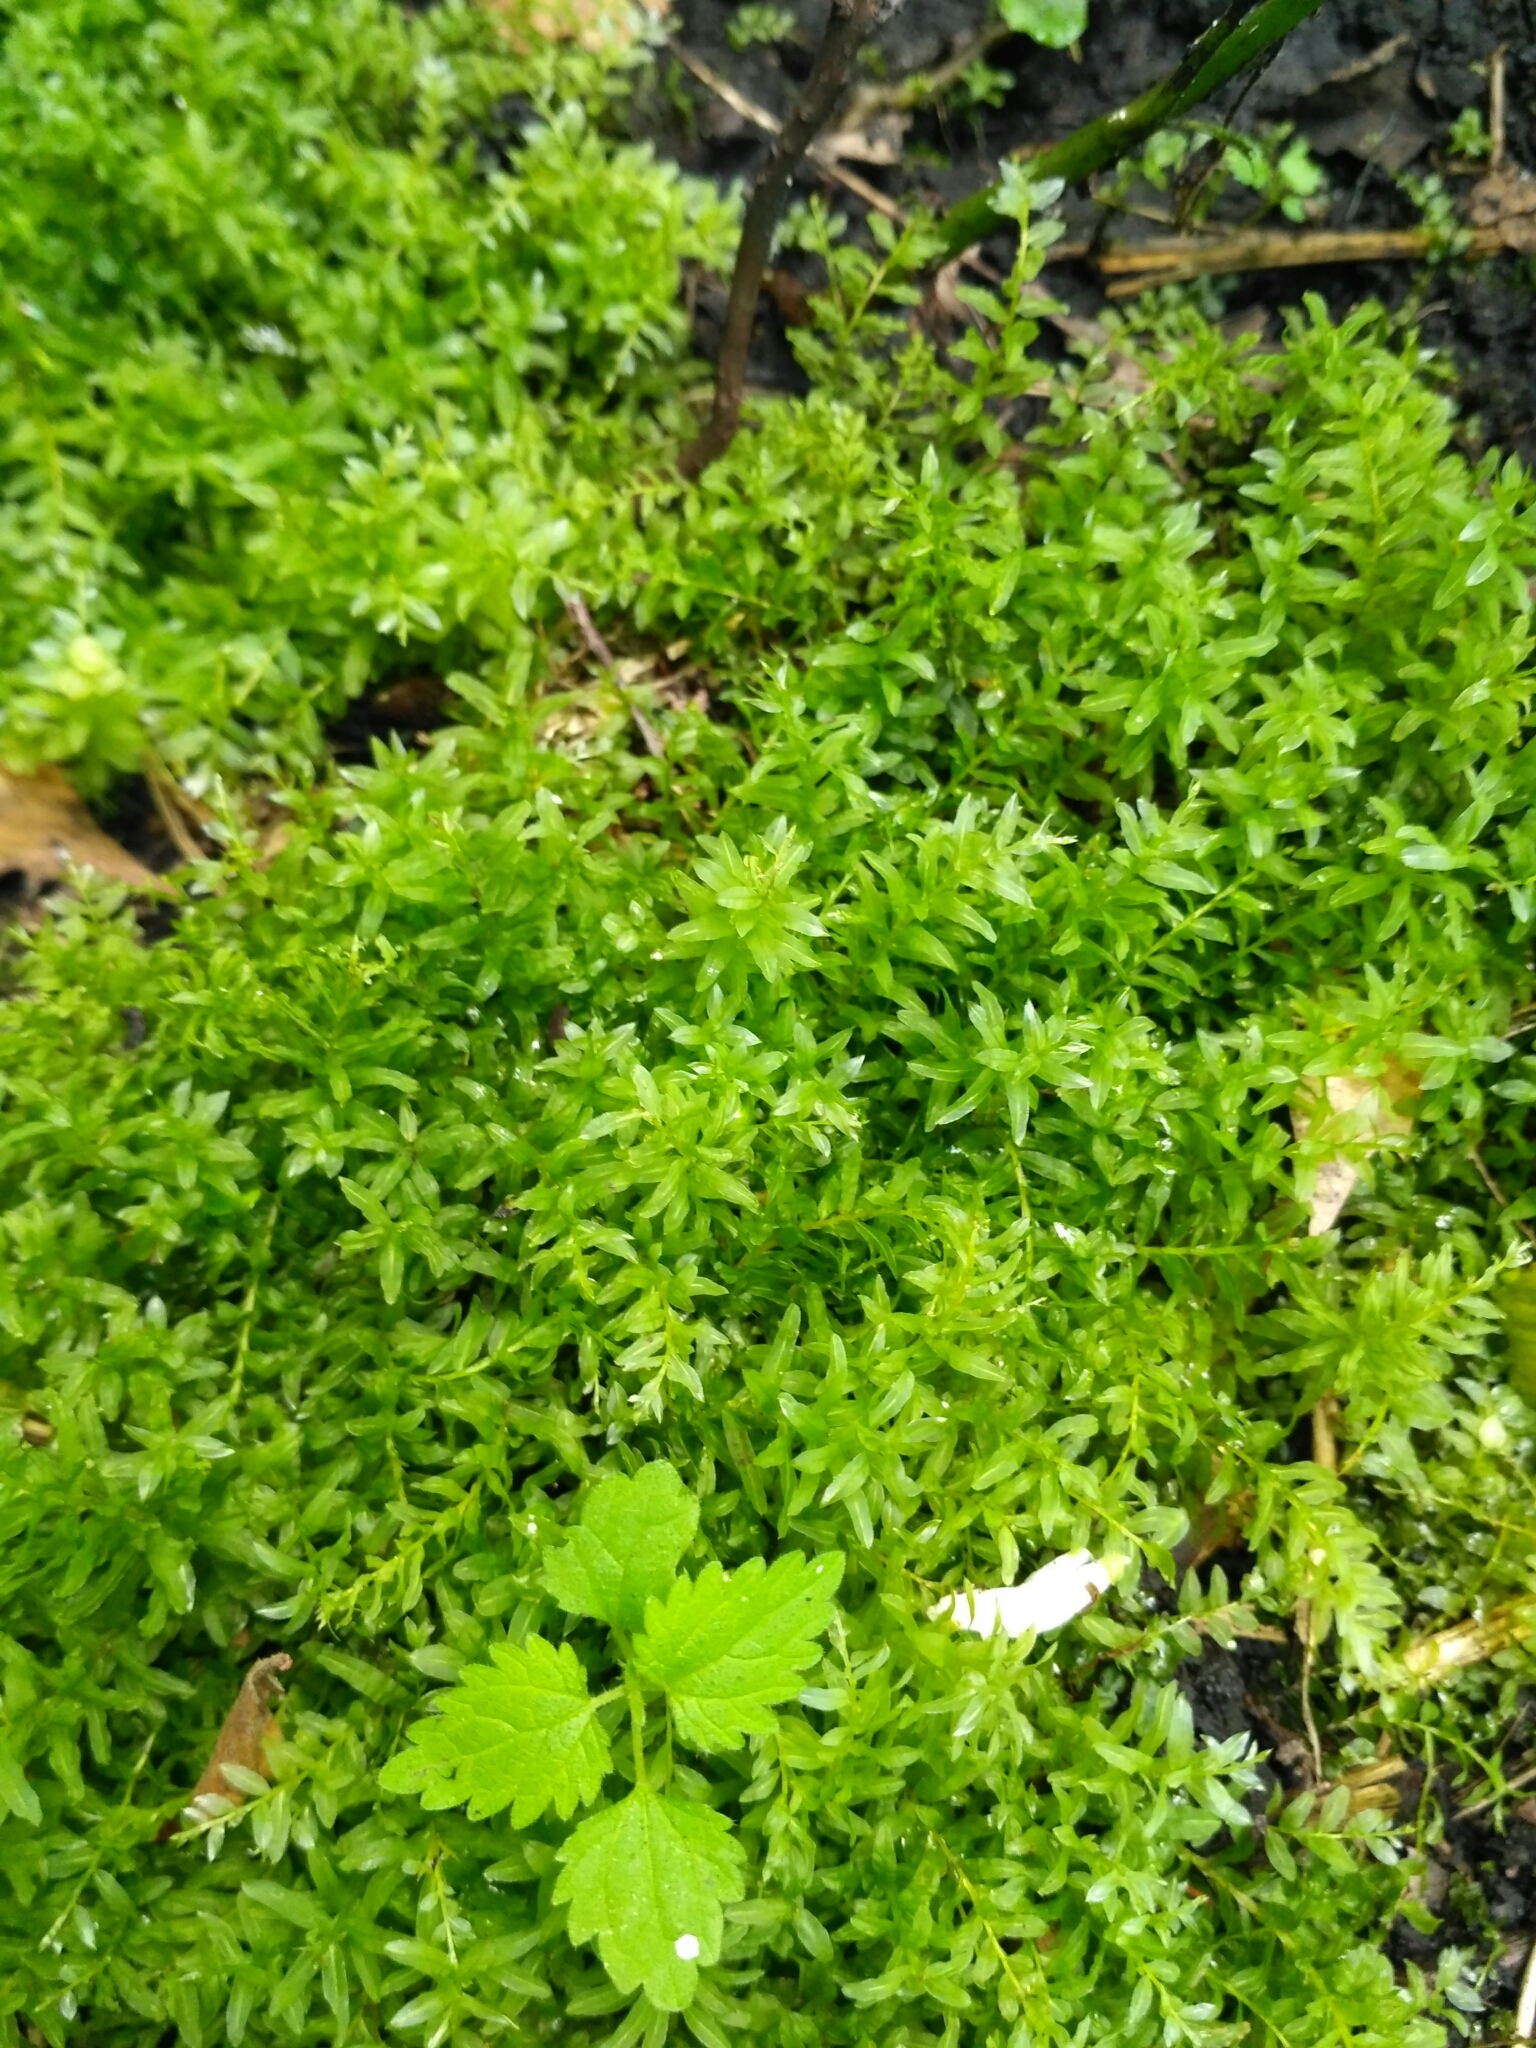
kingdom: Plantae
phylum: Bryophyta
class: Bryopsida
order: Bryales
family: Mniaceae
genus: Plagiomnium
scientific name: Plagiomnium undulatum
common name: Hart's-tongue thyme-moss
